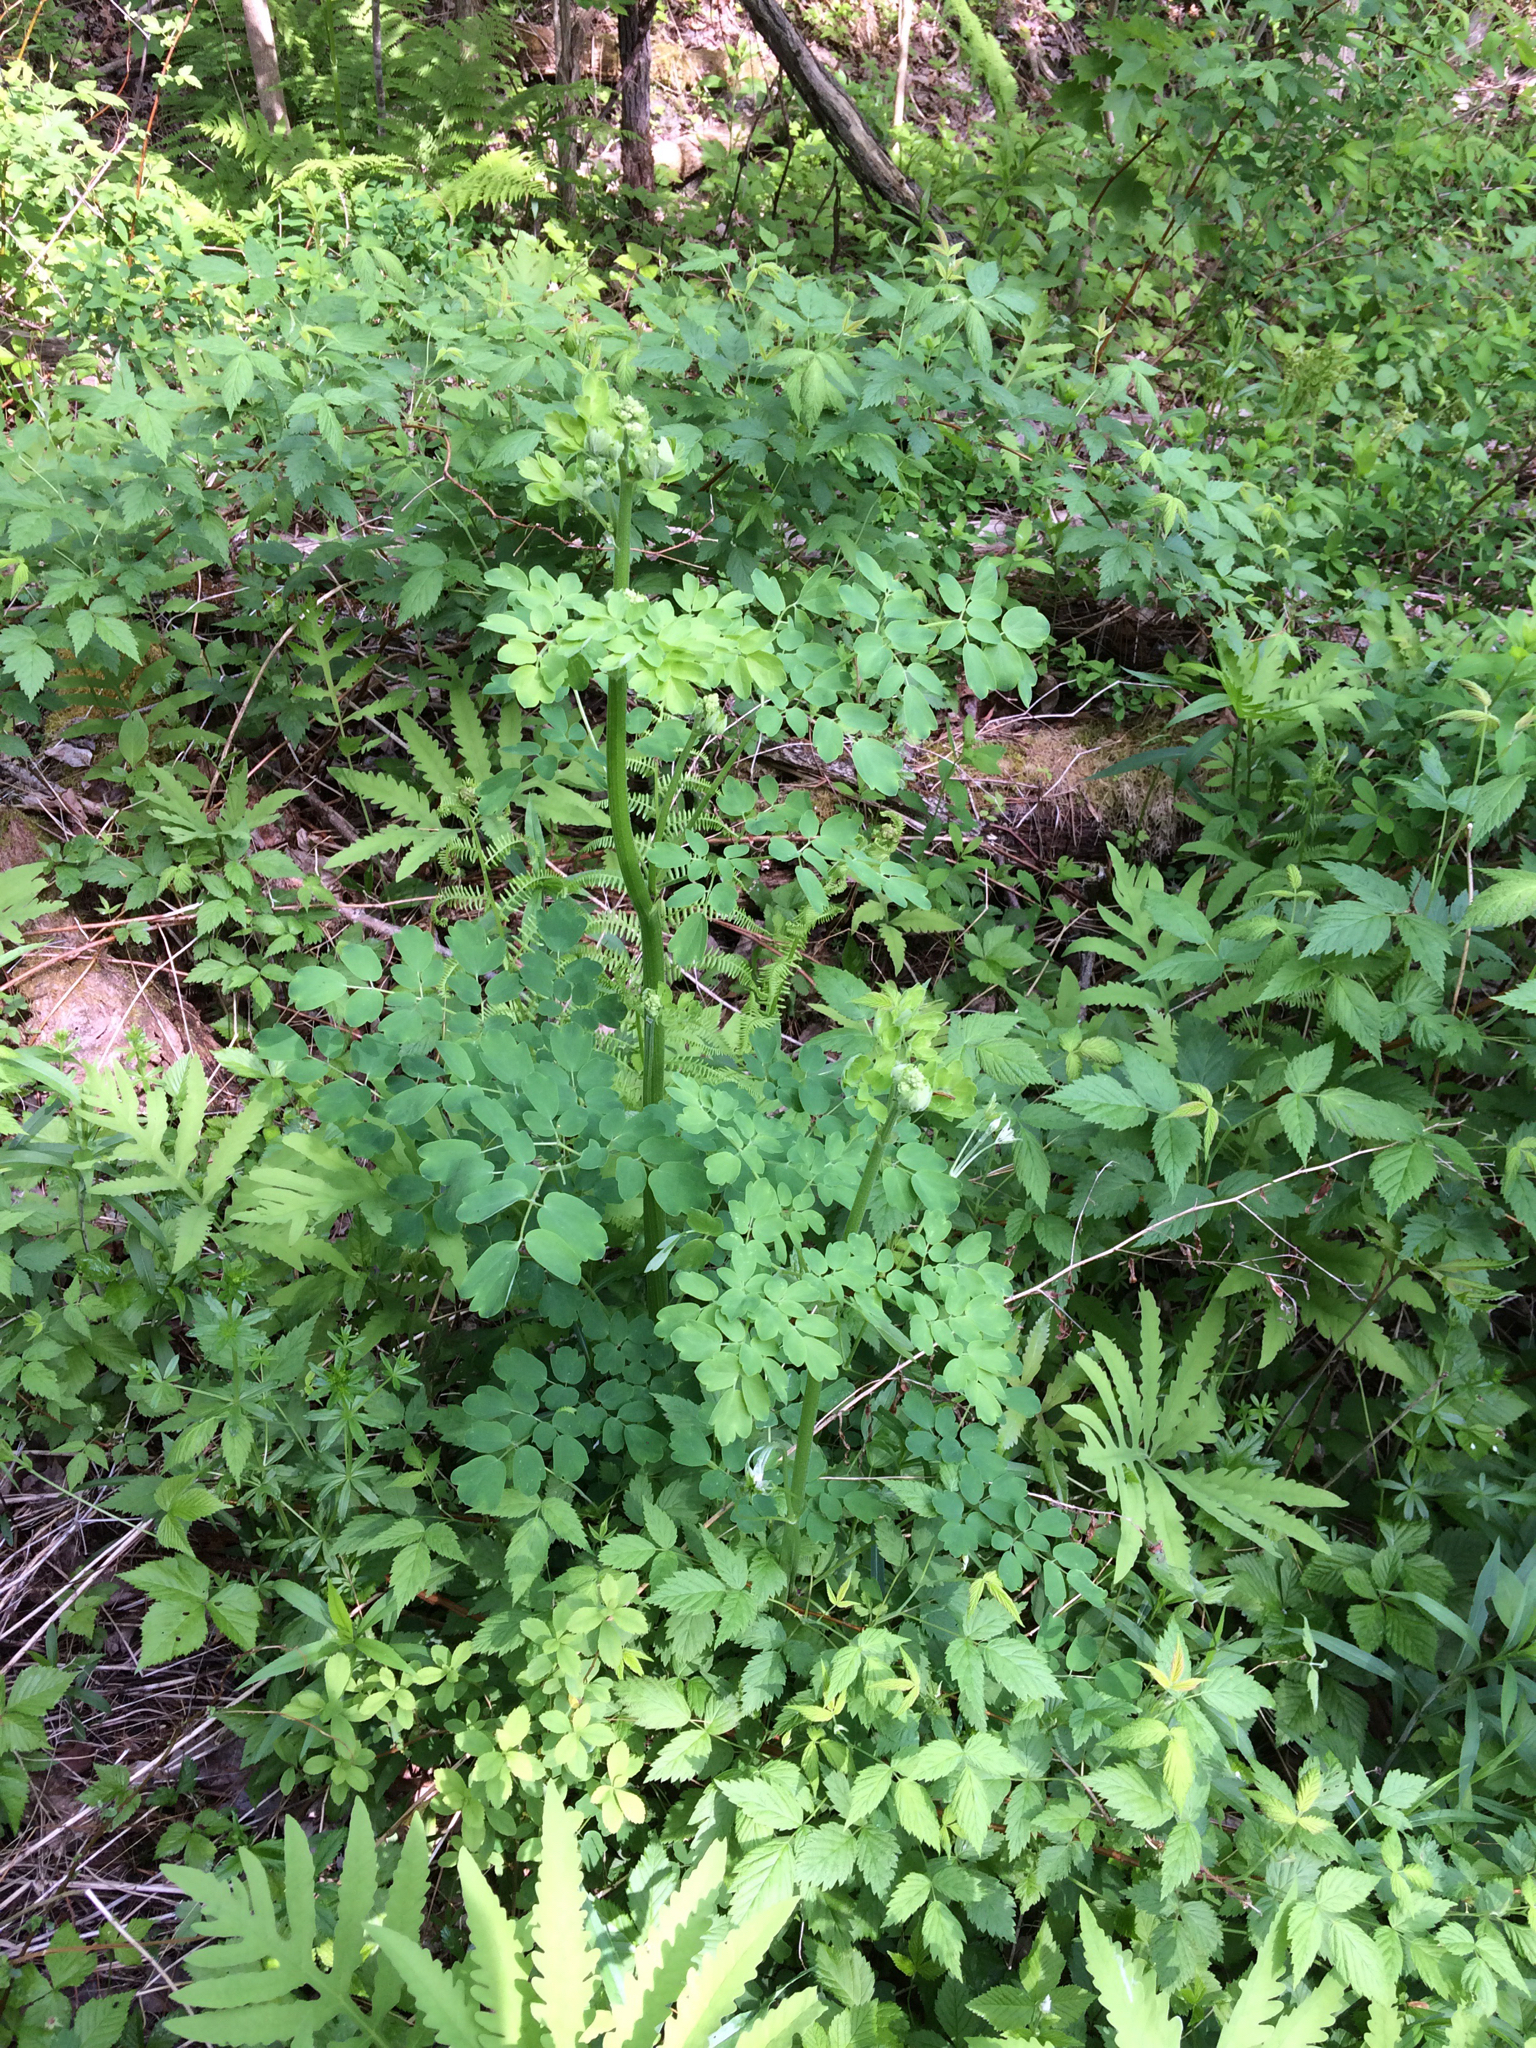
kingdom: Plantae
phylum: Tracheophyta
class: Magnoliopsida
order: Ranunculales
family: Ranunculaceae
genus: Thalictrum
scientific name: Thalictrum pubescens
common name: King-of-the-meadow
